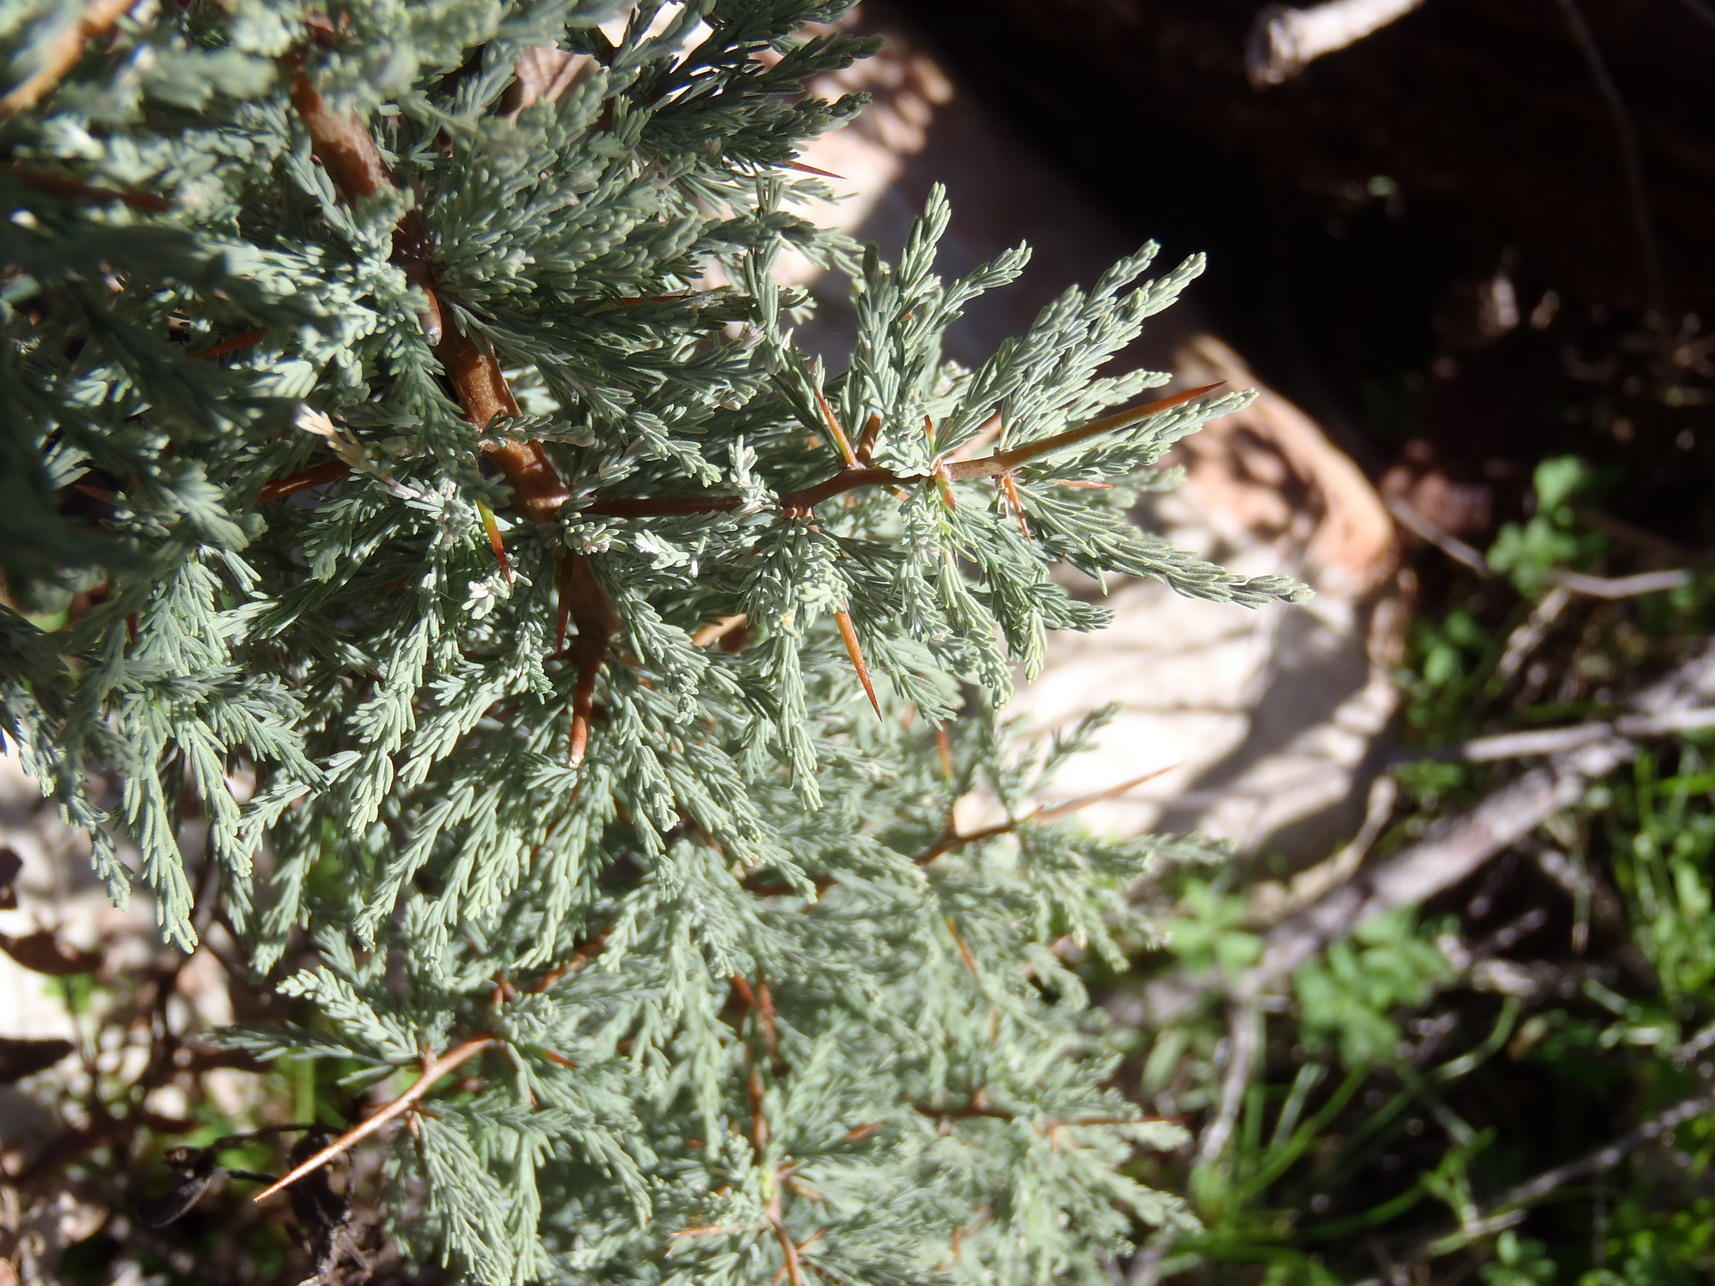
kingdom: Plantae
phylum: Tracheophyta
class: Liliopsida
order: Asparagales
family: Asparagaceae
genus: Asparagus
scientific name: Asparagus capensis
